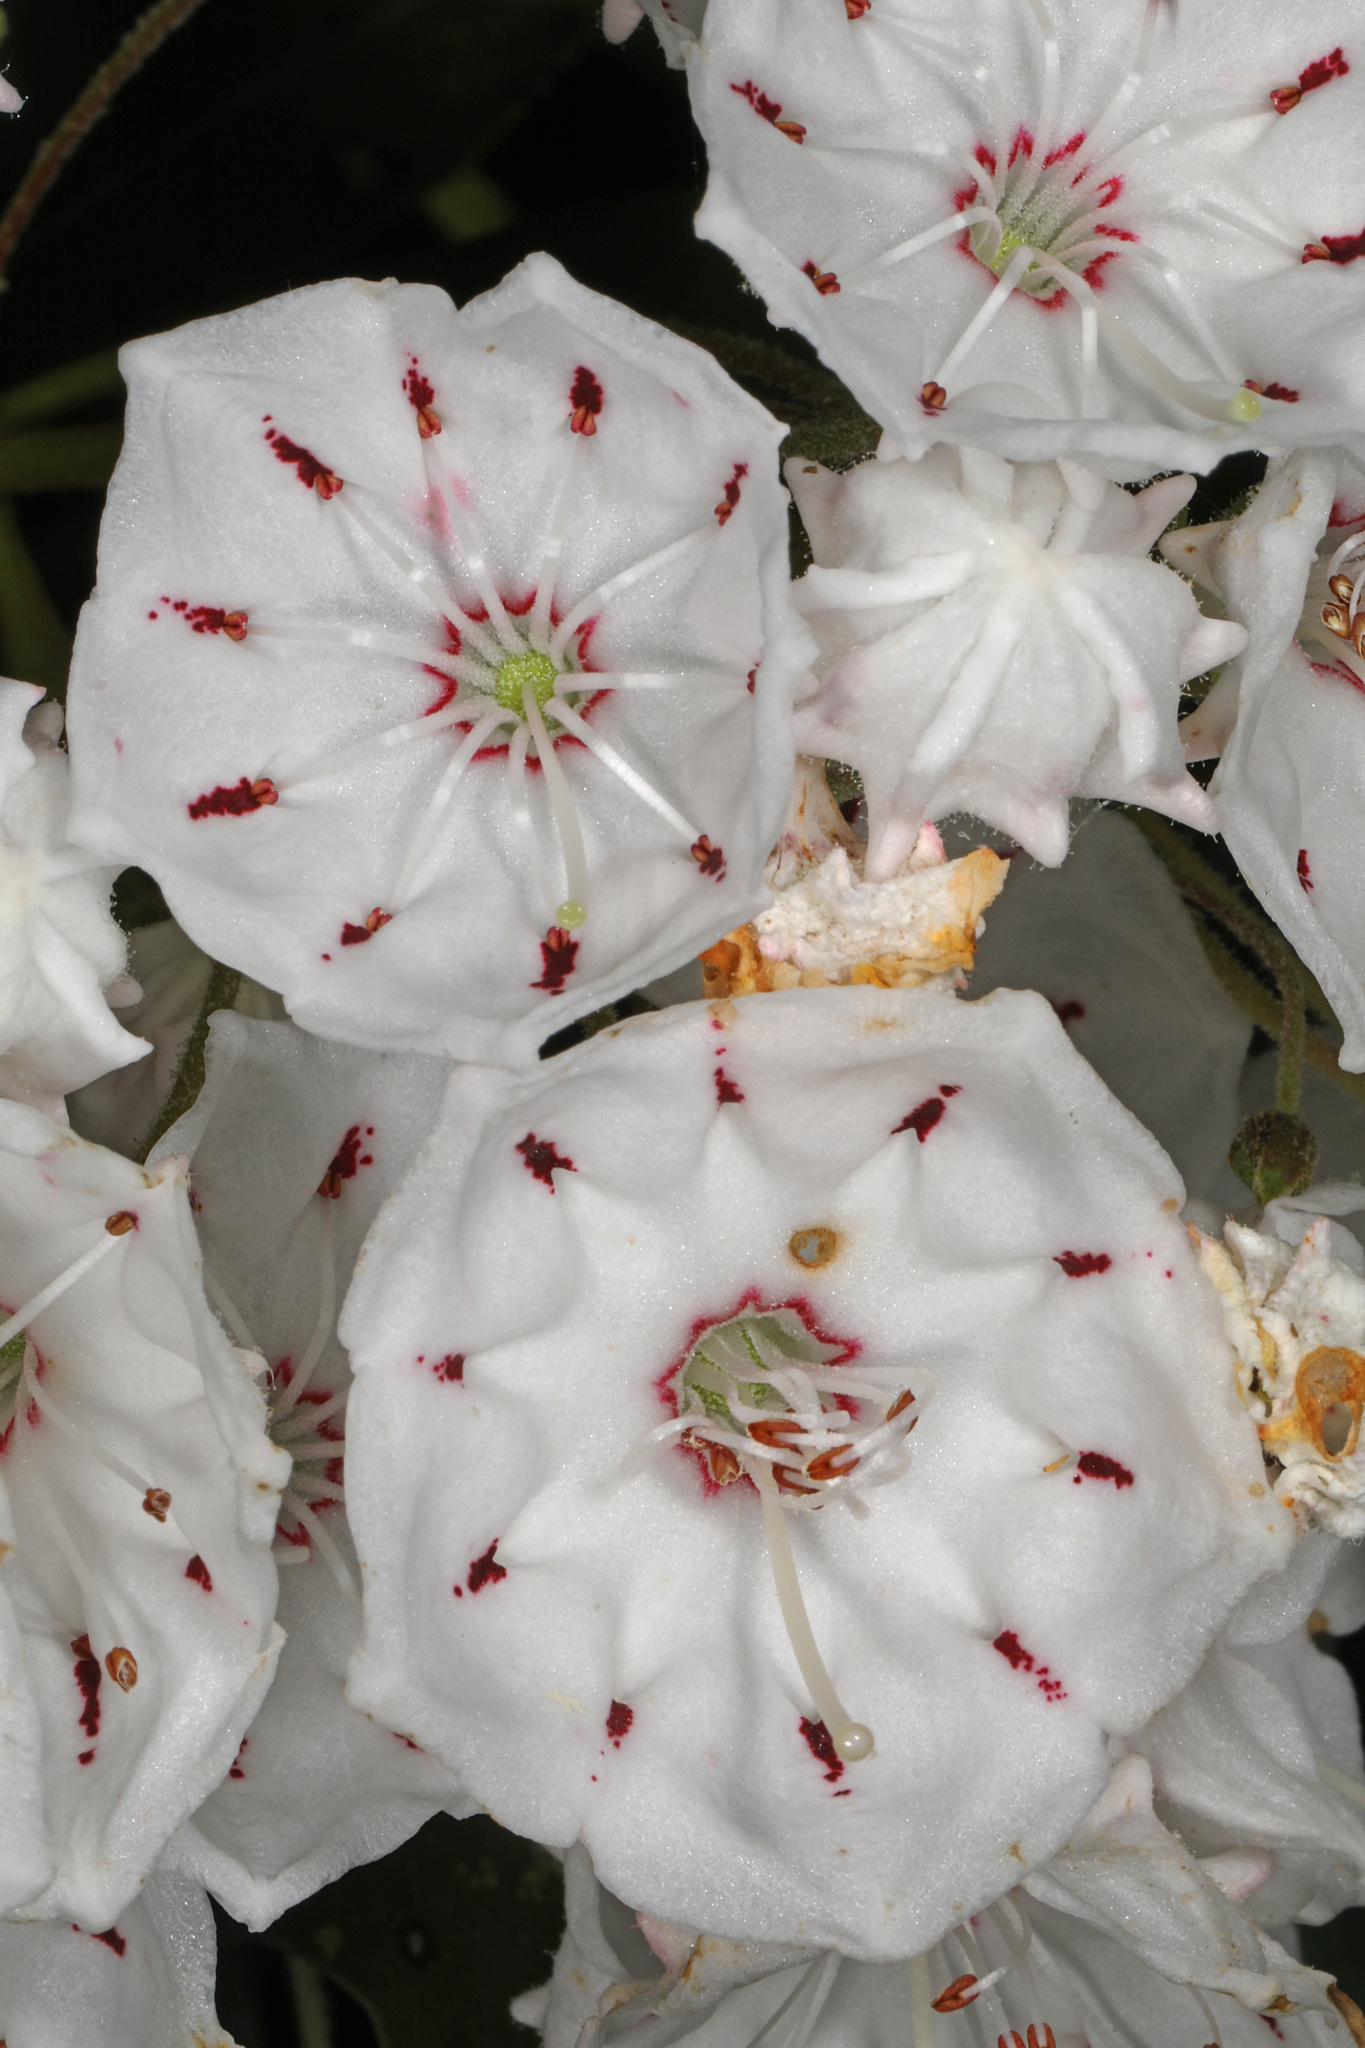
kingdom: Plantae
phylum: Tracheophyta
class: Magnoliopsida
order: Ericales
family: Ericaceae
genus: Kalmia
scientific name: Kalmia latifolia
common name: Mountain-laurel
